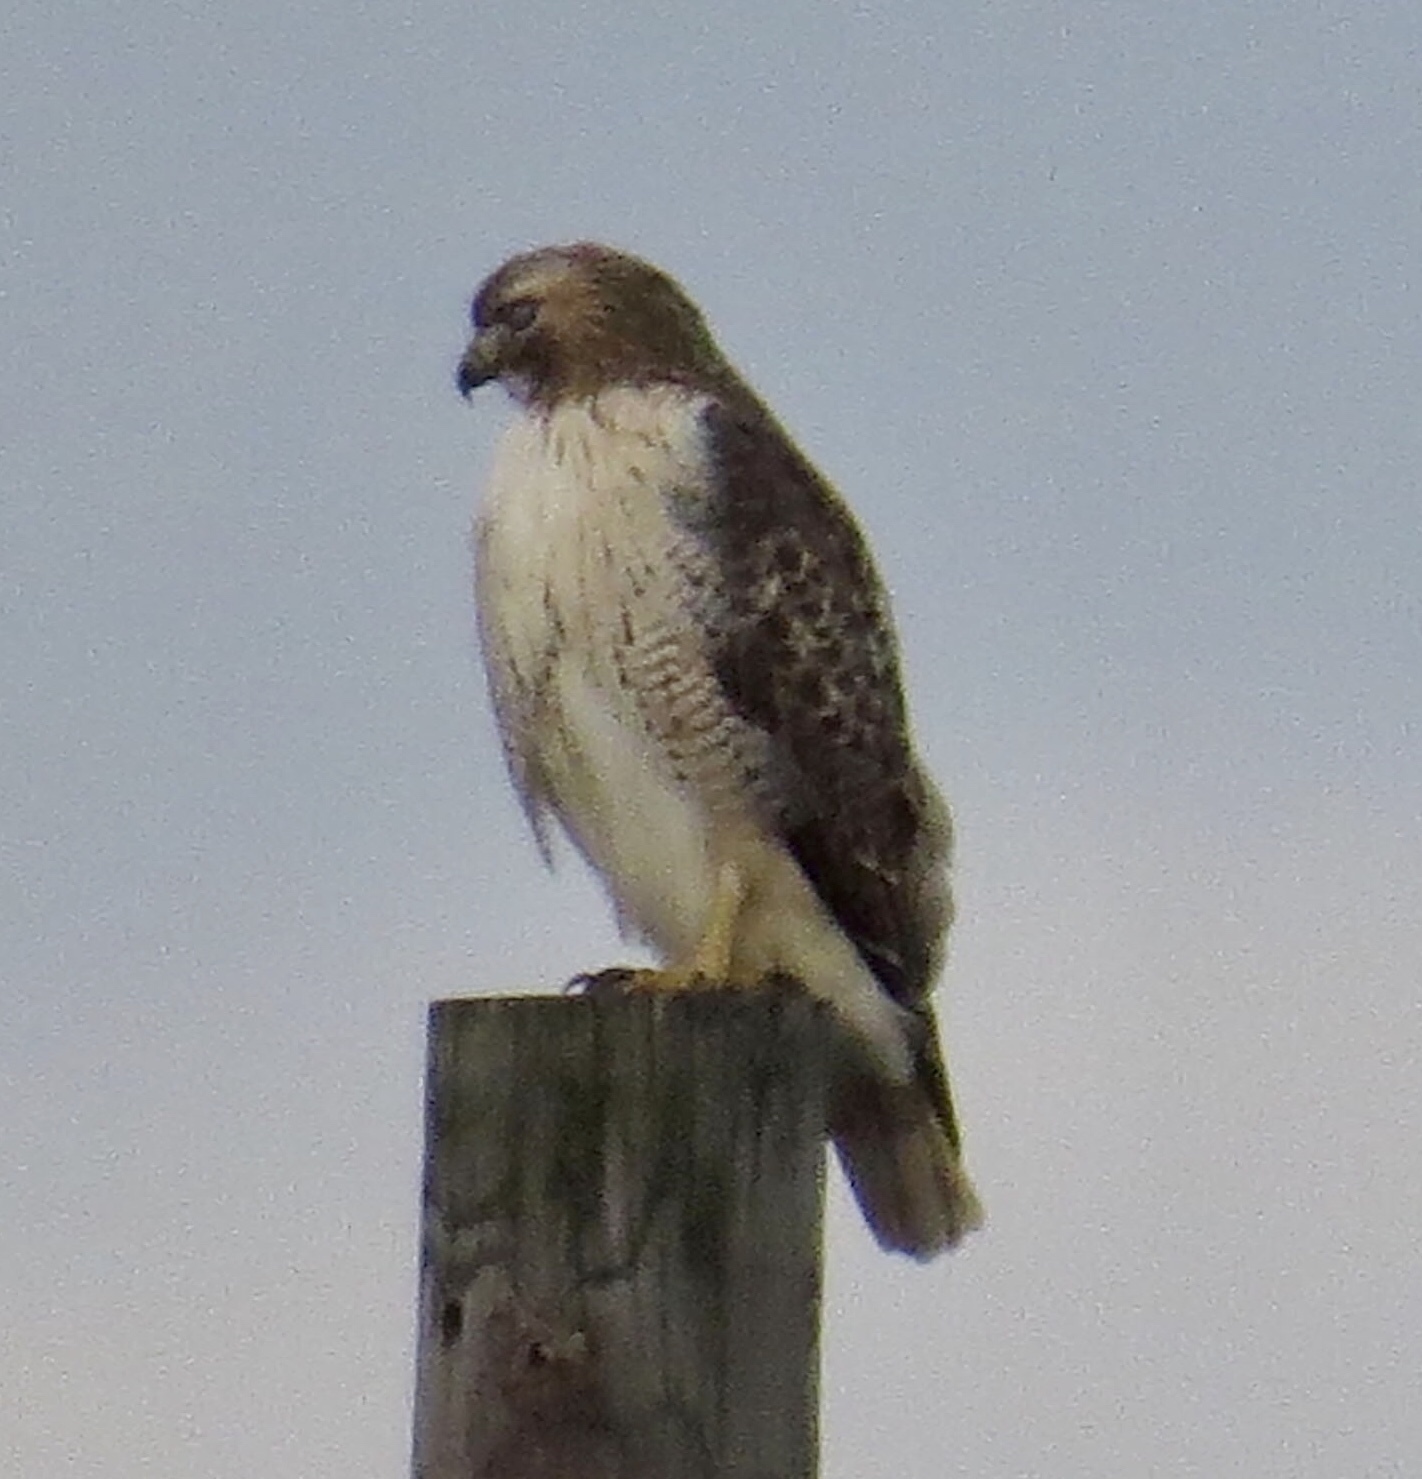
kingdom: Animalia
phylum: Chordata
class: Aves
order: Accipitriformes
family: Accipitridae
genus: Buteo
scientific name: Buteo jamaicensis
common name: Red-tailed hawk
